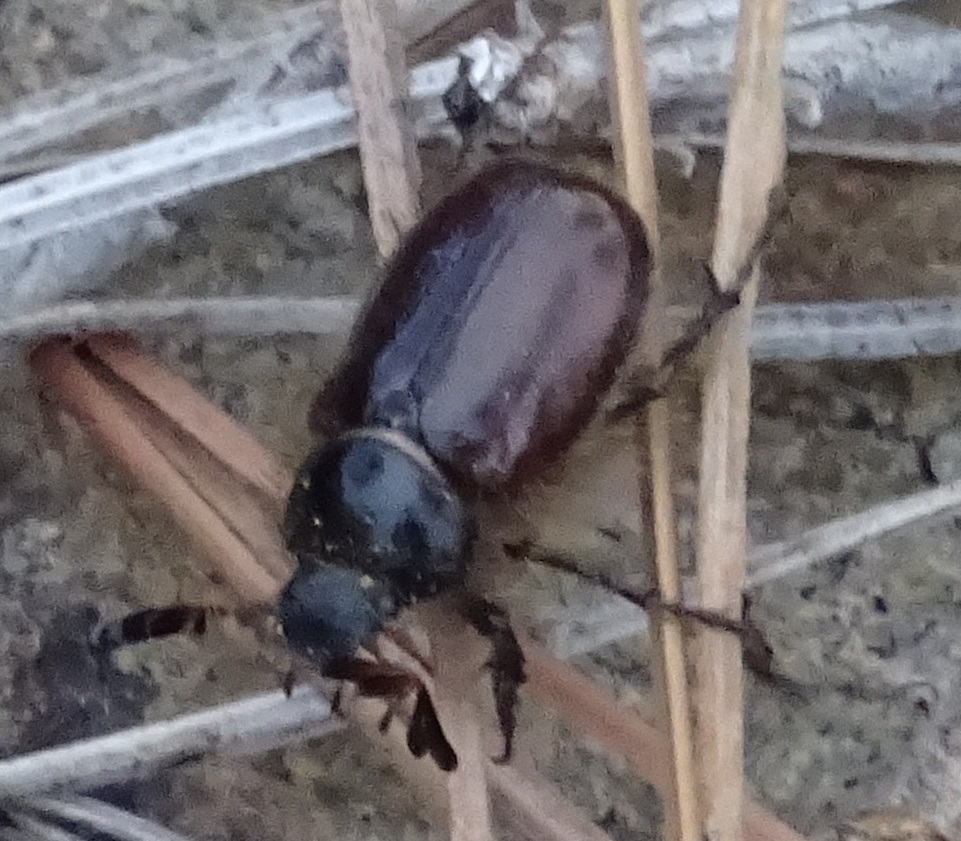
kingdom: Animalia
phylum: Arthropoda
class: Insecta
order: Coleoptera
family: Scarabaeidae
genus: Pachydema
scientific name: Pachydema obscura
